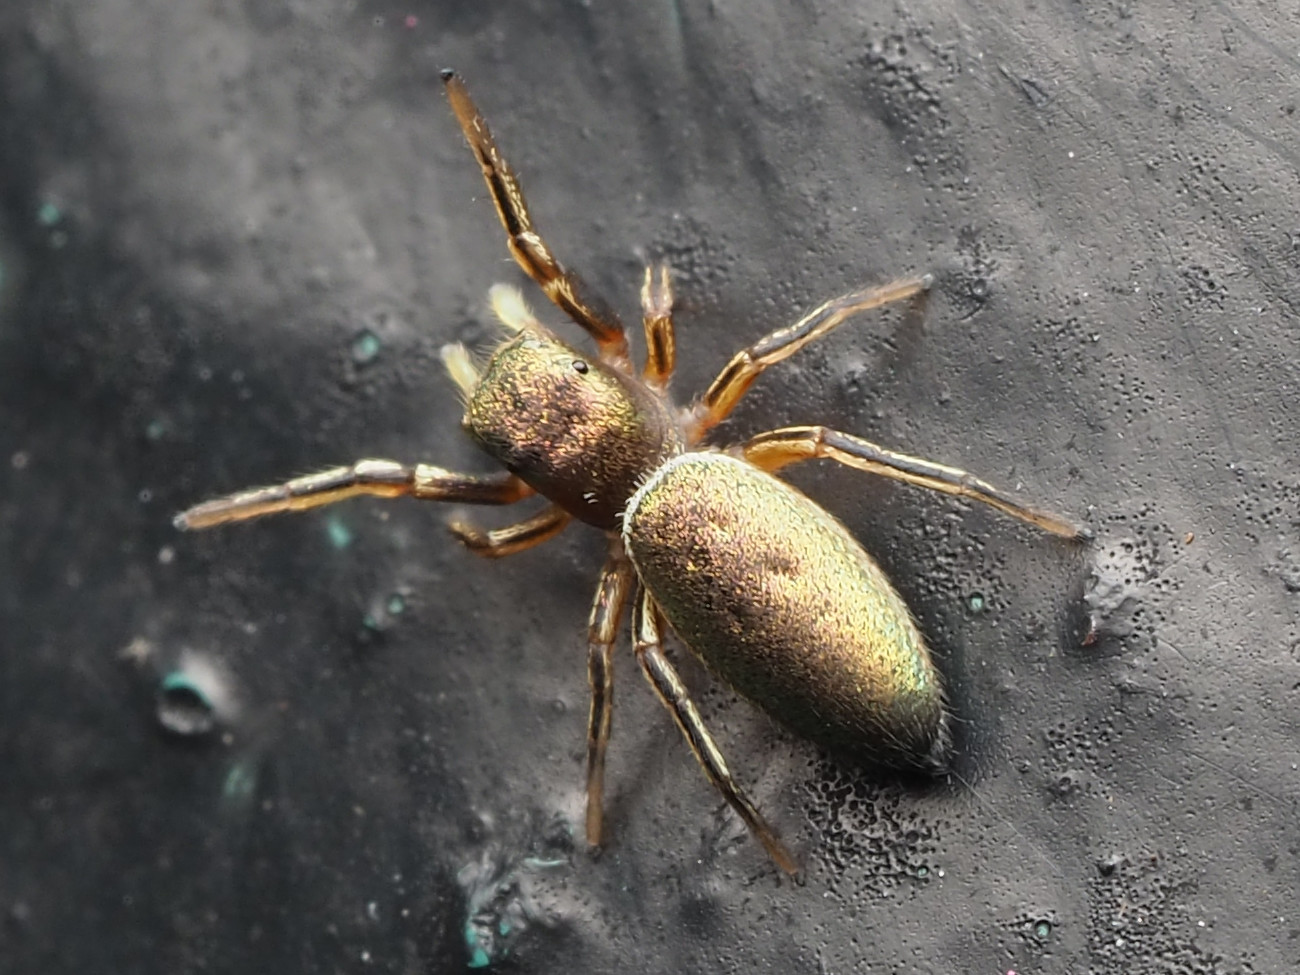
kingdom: Animalia
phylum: Arthropoda
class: Arachnida
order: Araneae
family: Salticidae
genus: Tutelina
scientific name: Tutelina elegans
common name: Thin-spined jumping spider
